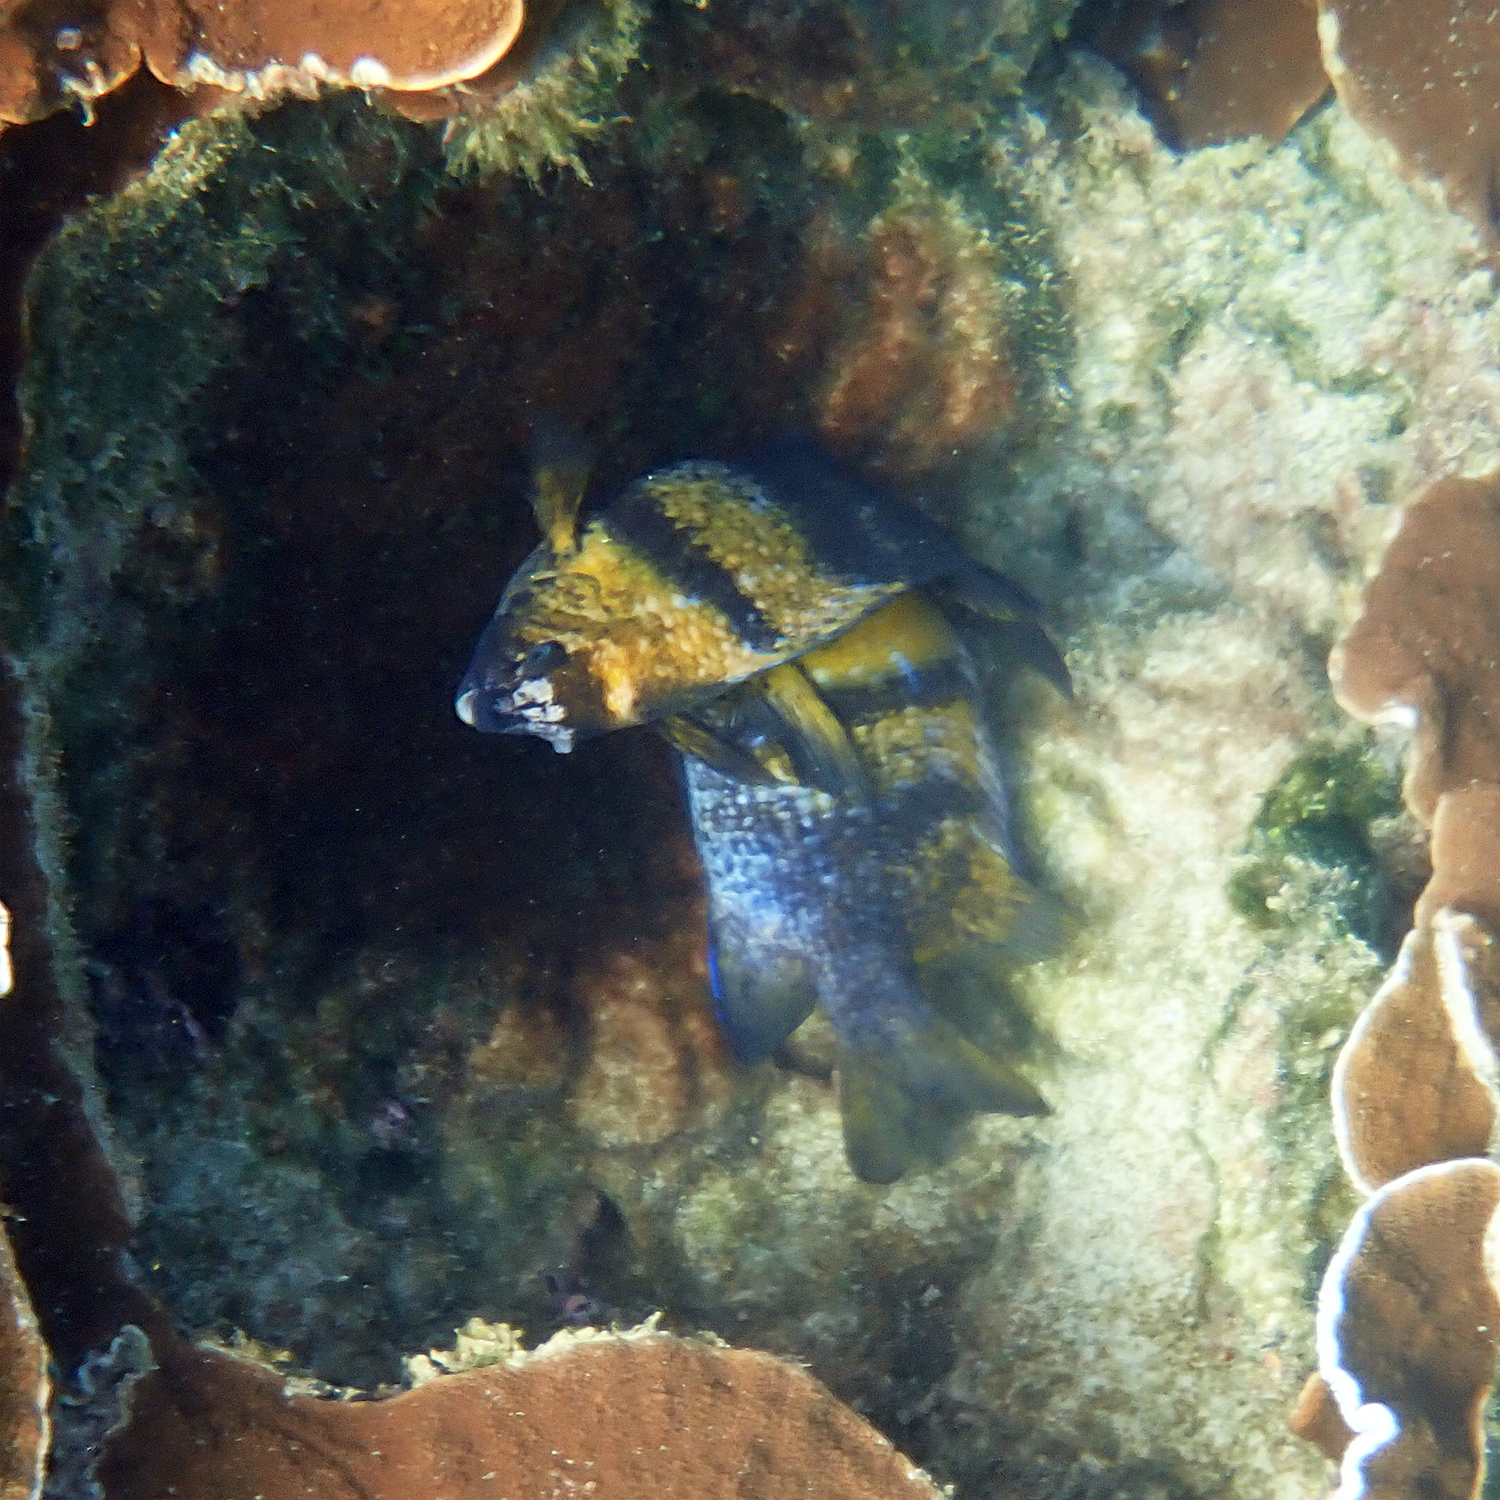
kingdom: Animalia
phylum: Chordata
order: Perciformes
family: Pomacentridae
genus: Parma
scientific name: Parma polylepis
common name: Banded parma
